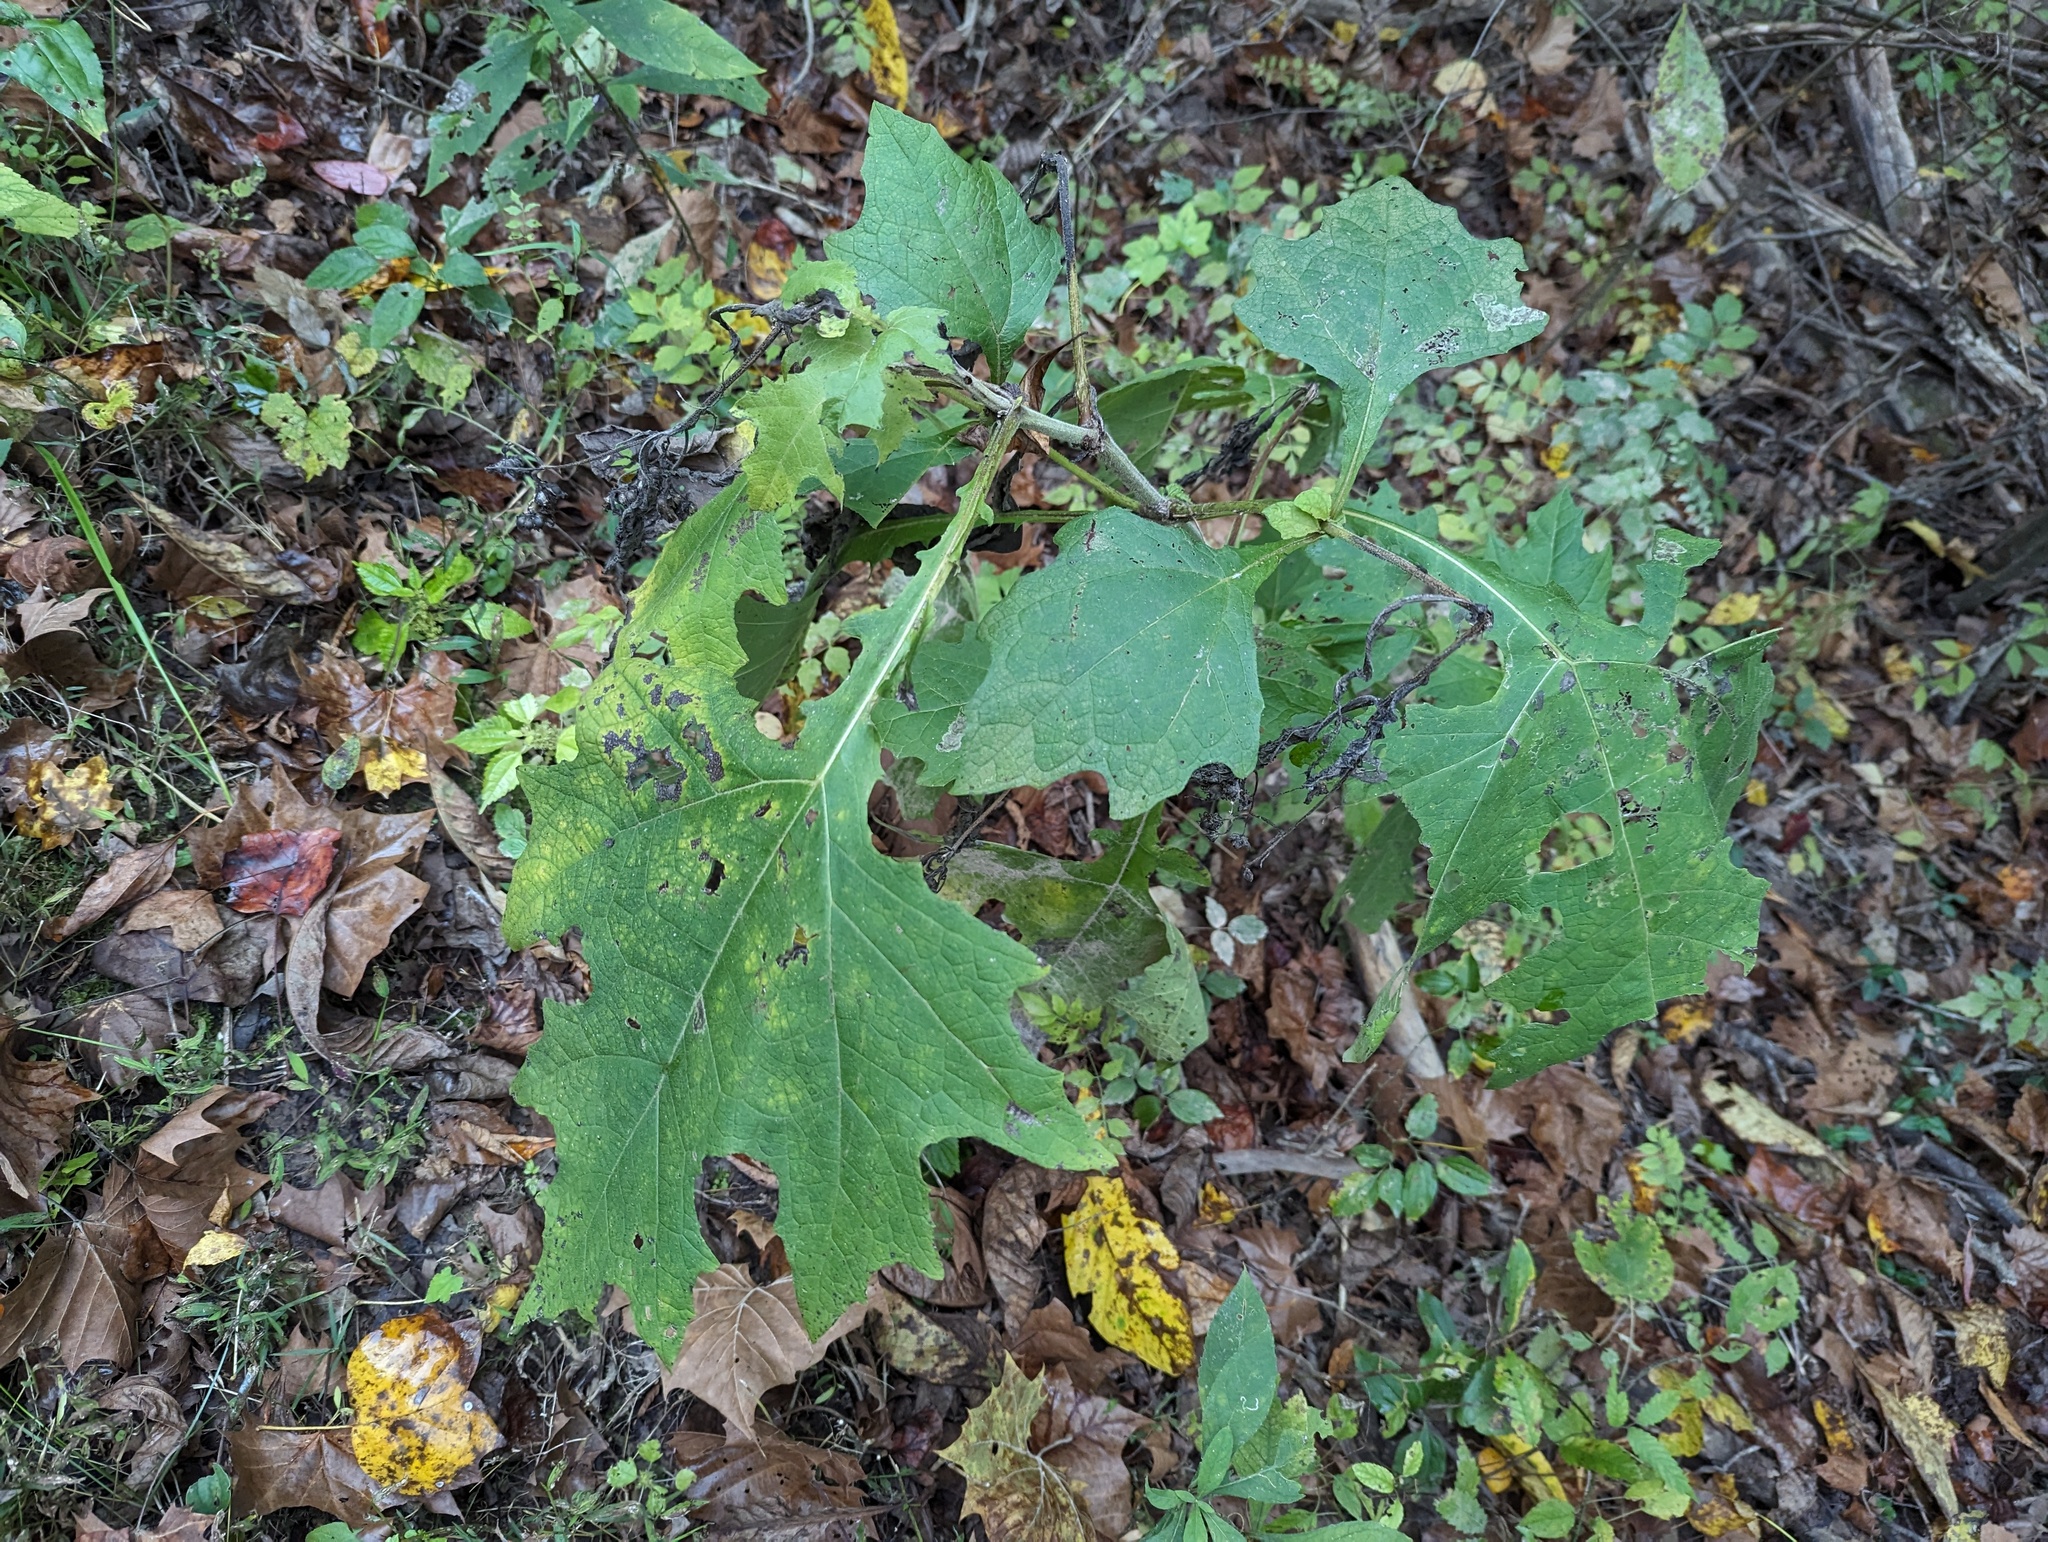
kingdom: Plantae
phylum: Tracheophyta
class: Magnoliopsida
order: Asterales
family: Asteraceae
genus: Smallanthus
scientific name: Smallanthus uvedalia
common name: Bear's-foot
